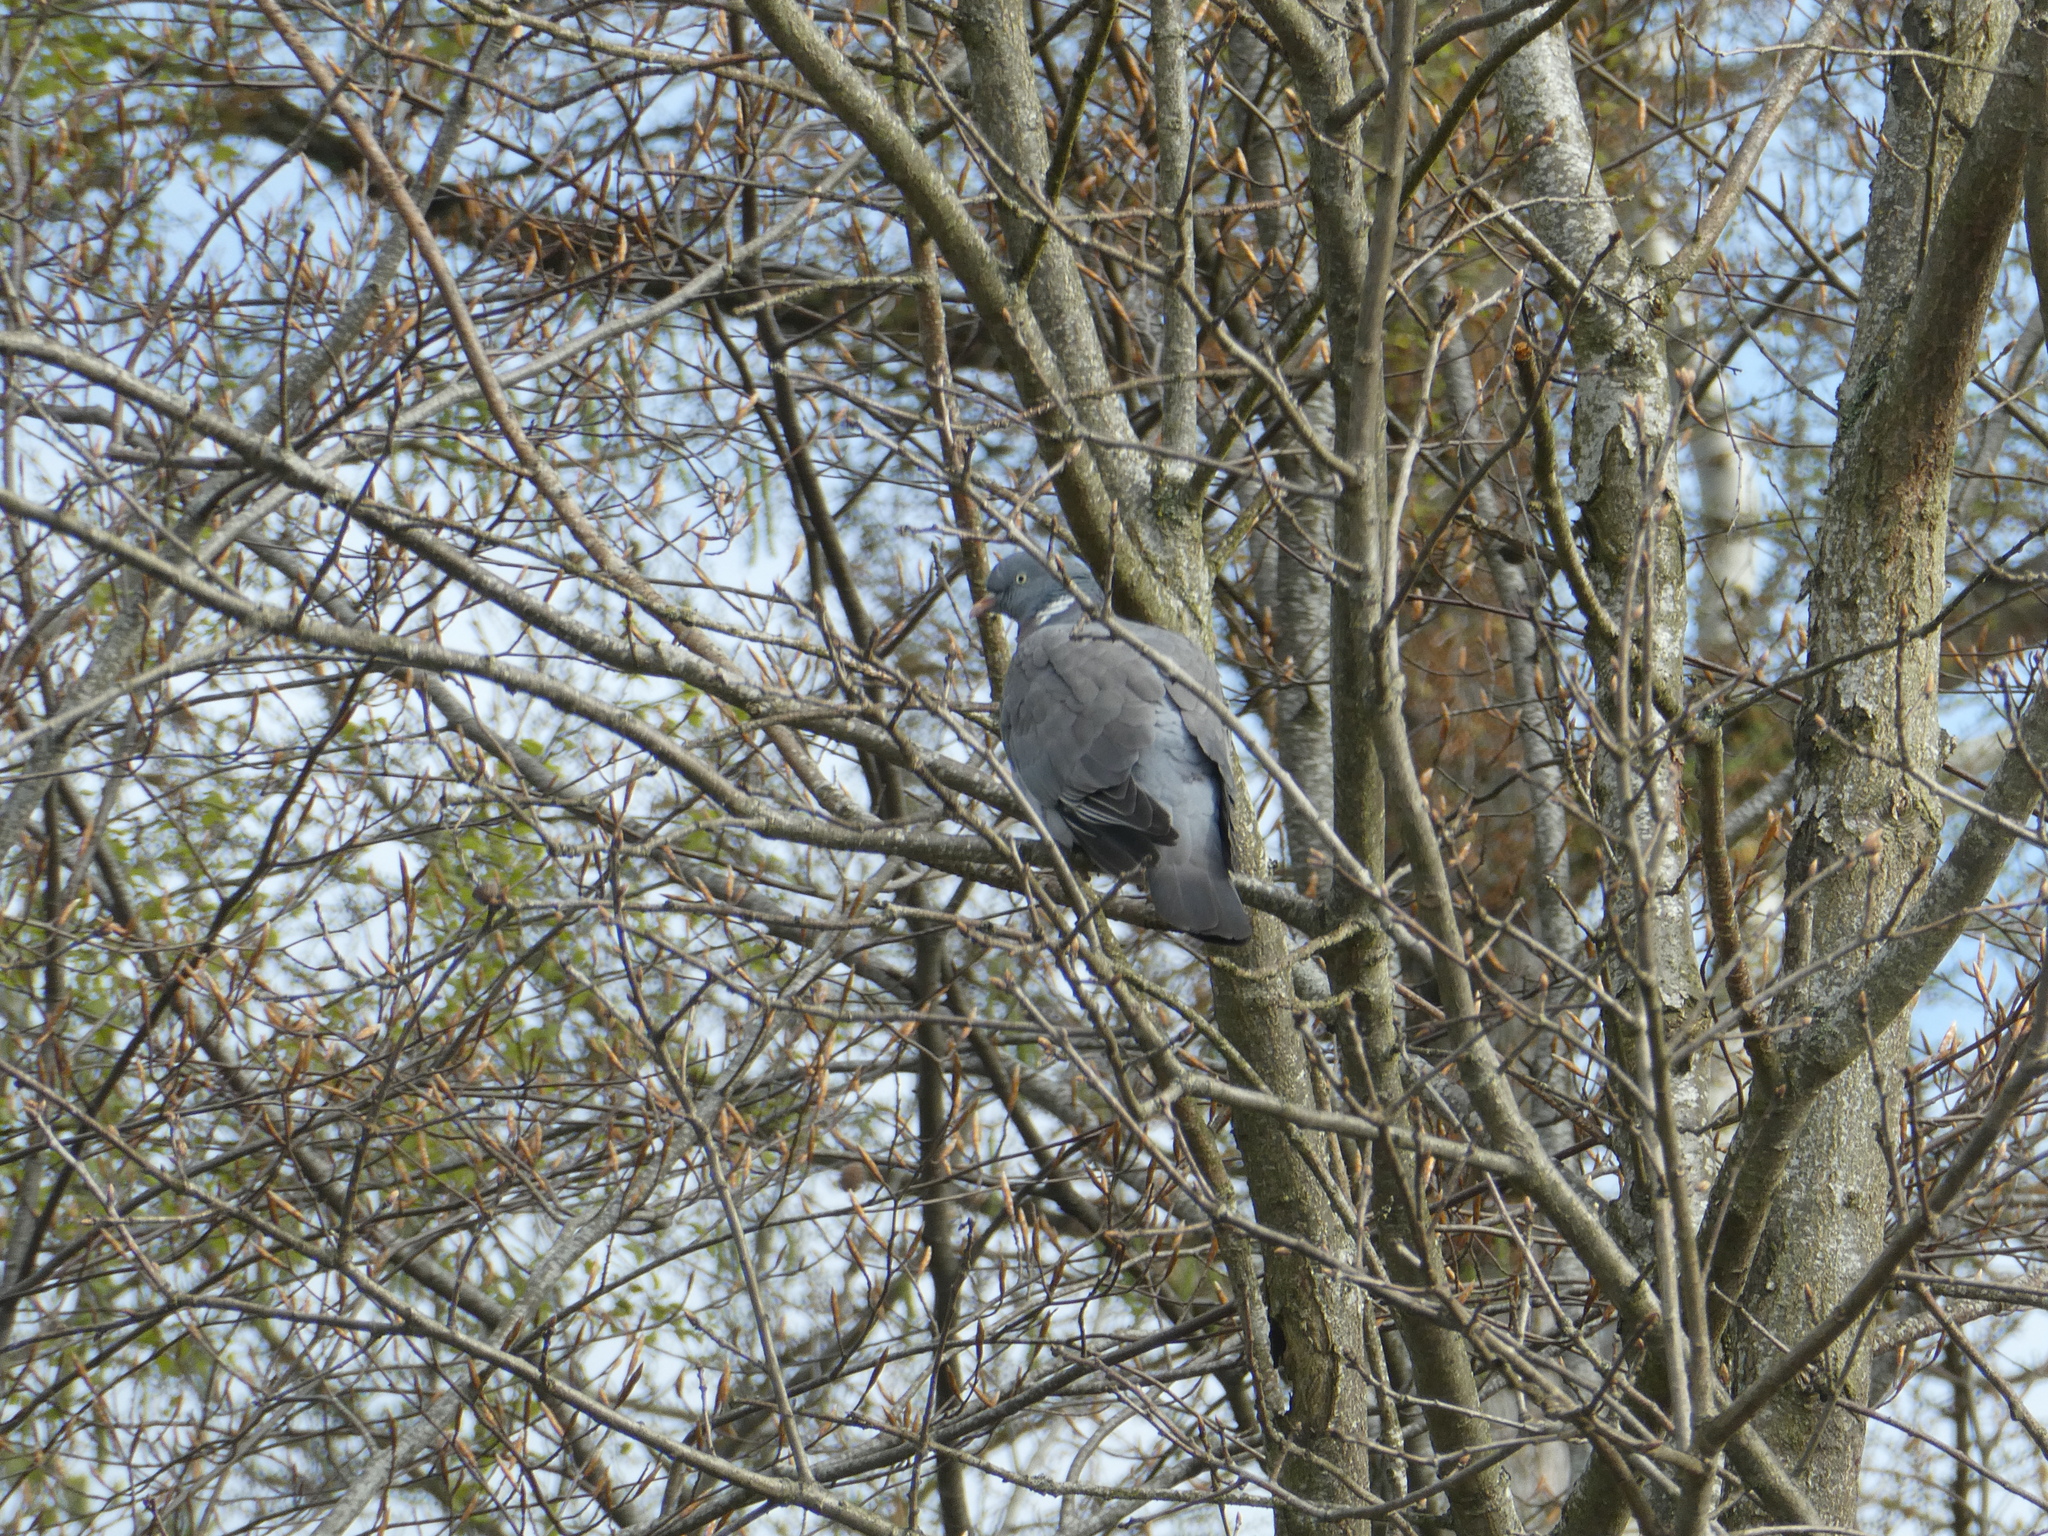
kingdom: Animalia
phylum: Chordata
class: Aves
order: Columbiformes
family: Columbidae
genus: Columba
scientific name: Columba palumbus
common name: Common wood pigeon
